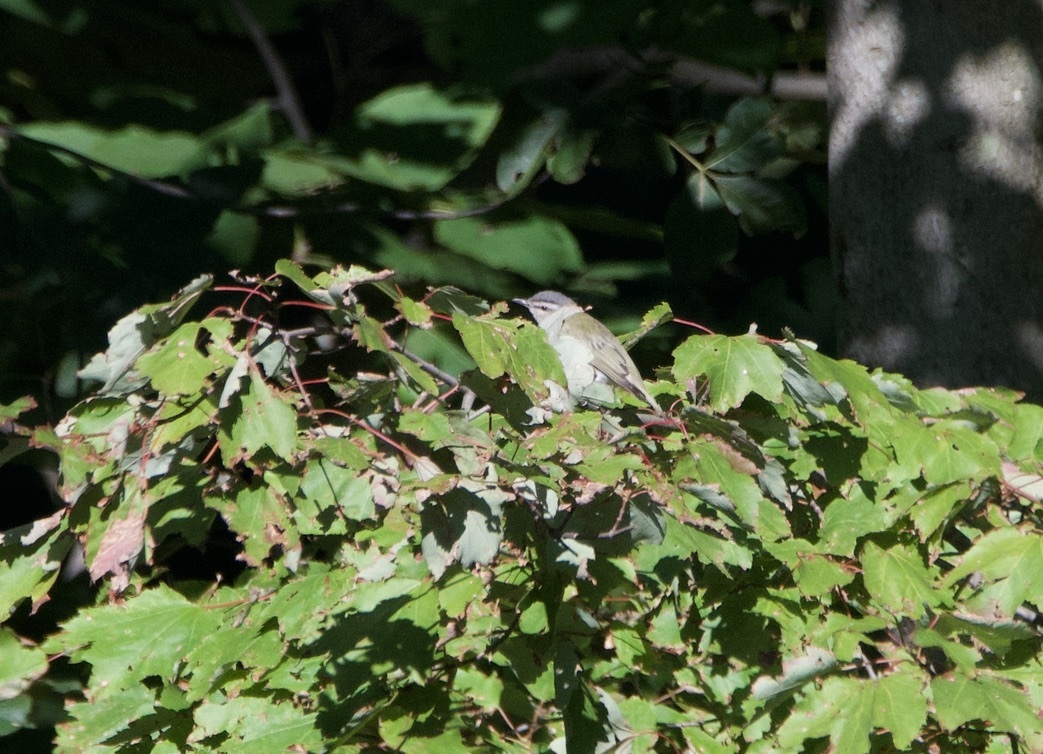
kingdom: Animalia
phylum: Chordata
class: Aves
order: Passeriformes
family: Vireonidae
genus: Vireo
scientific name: Vireo olivaceus
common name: Red-eyed vireo
